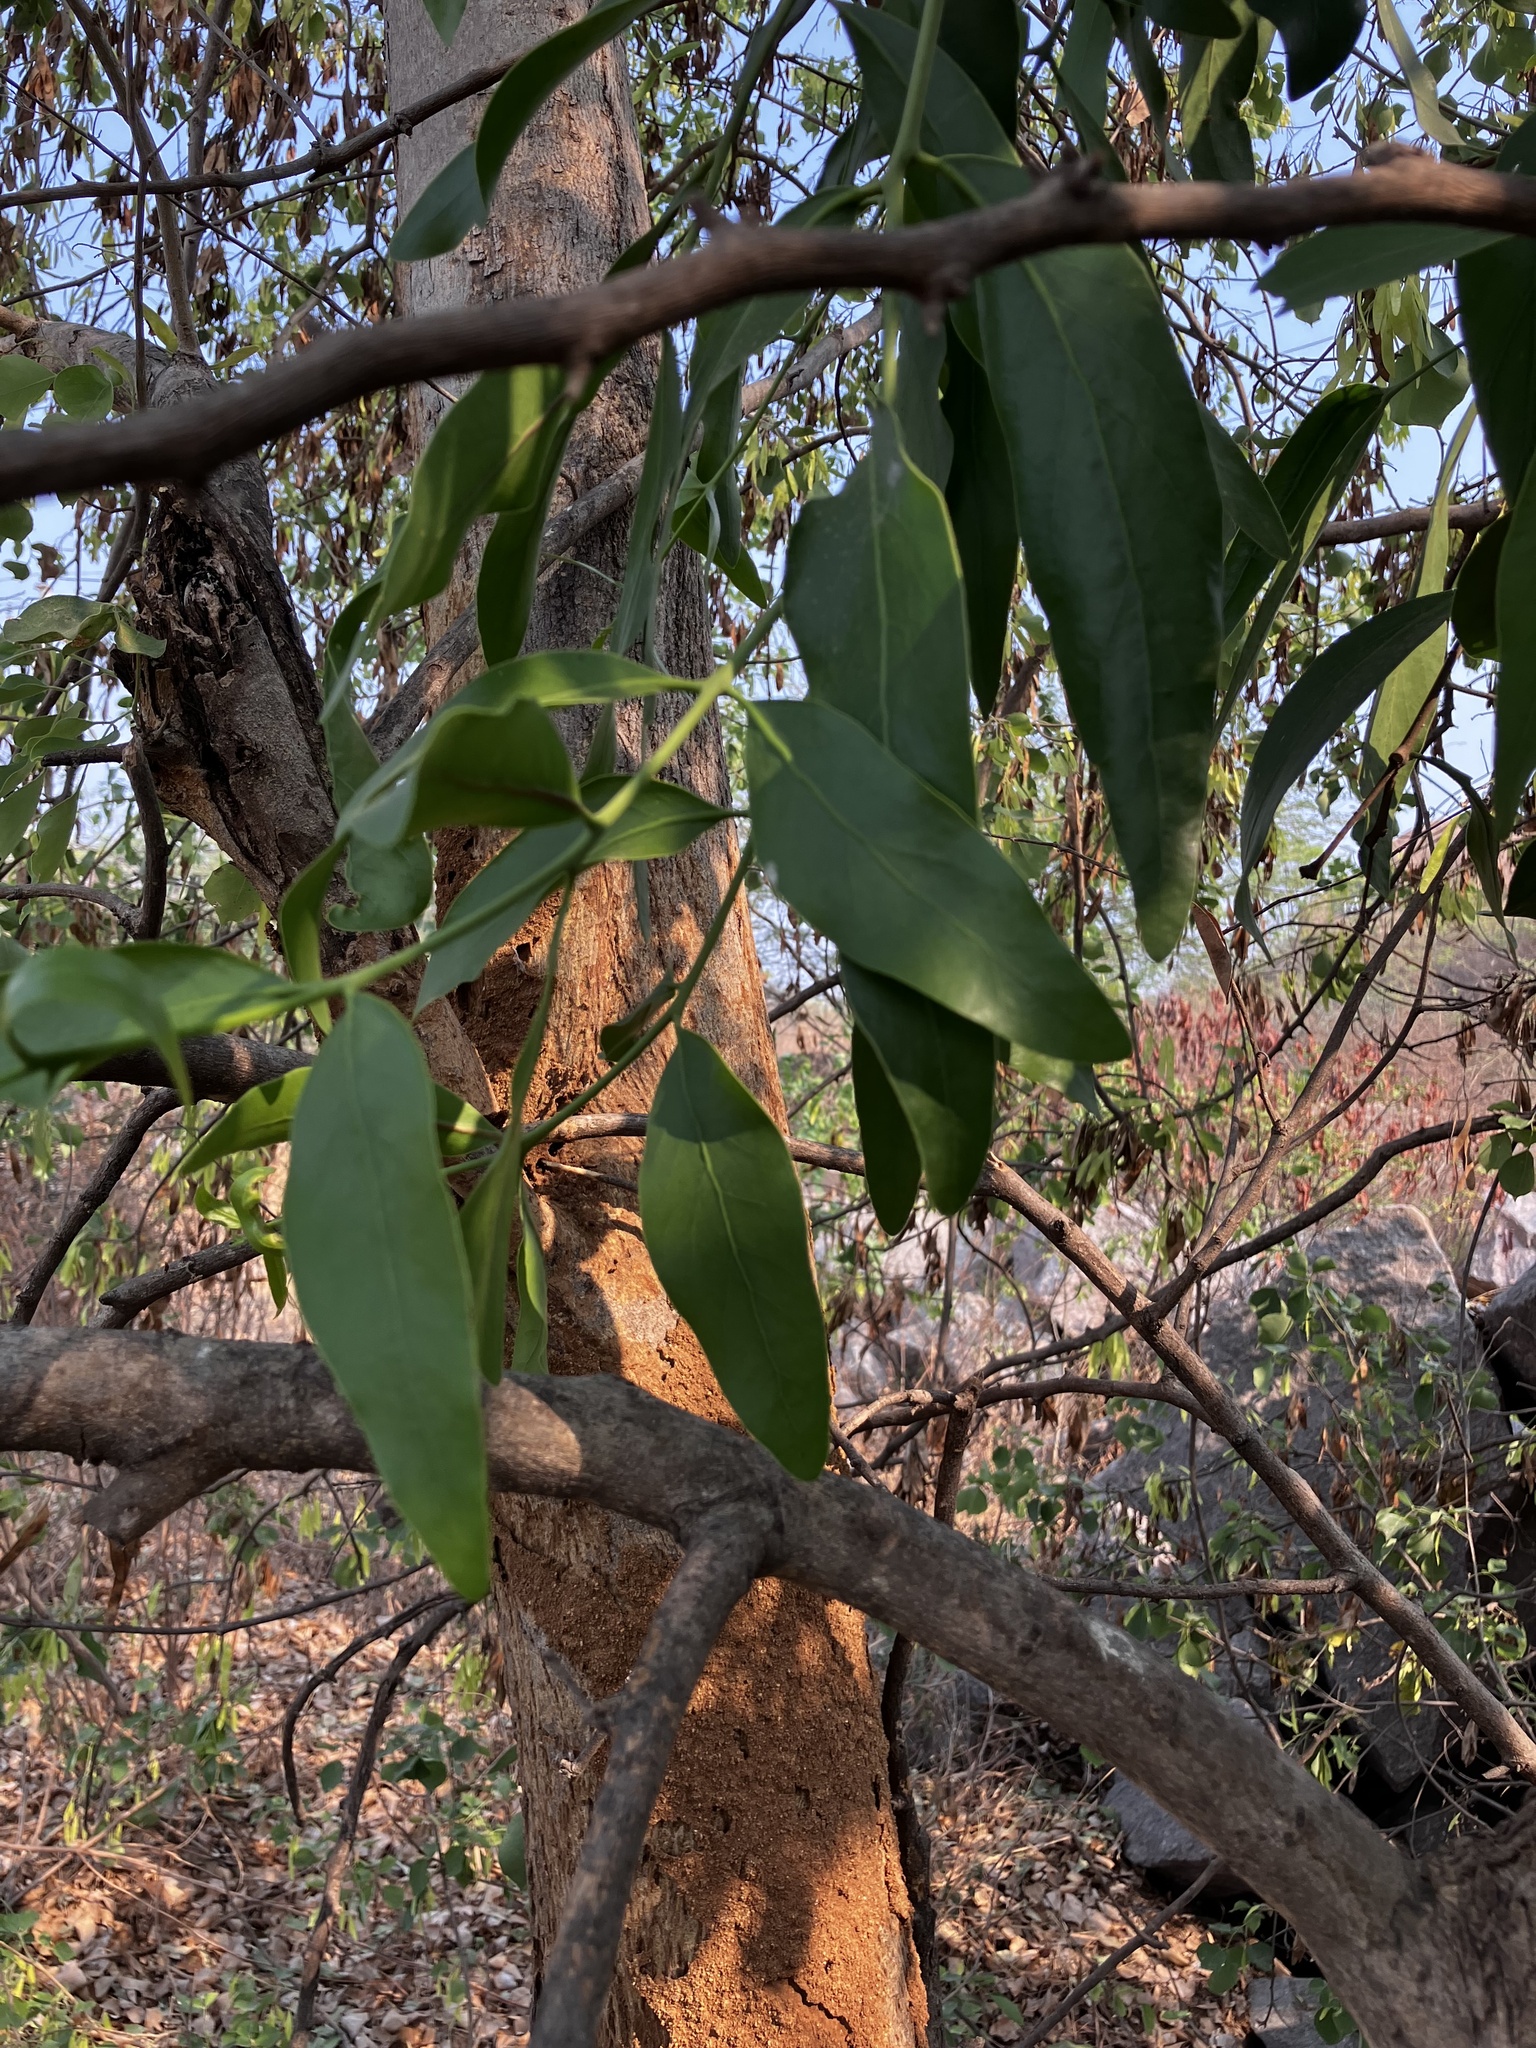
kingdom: Plantae
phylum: Tracheophyta
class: Magnoliopsida
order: Santalales
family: Loranthaceae
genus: Dendrophthoe
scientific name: Dendrophthoe falcata
